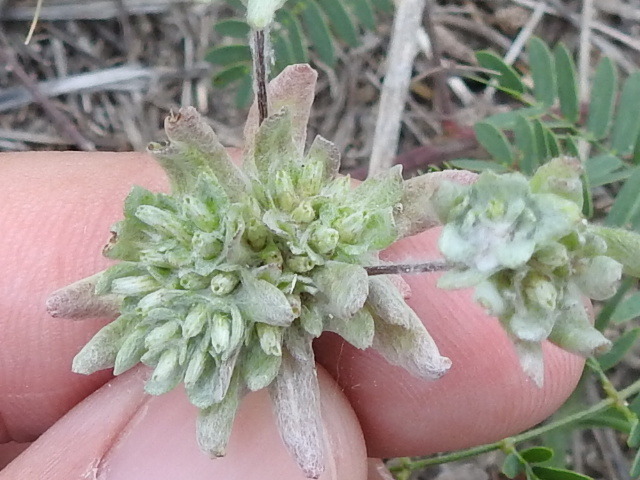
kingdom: Plantae
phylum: Tracheophyta
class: Magnoliopsida
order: Asterales
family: Asteraceae
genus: Diaperia
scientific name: Diaperia prolifera
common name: Big-head rabbit-tobacco
